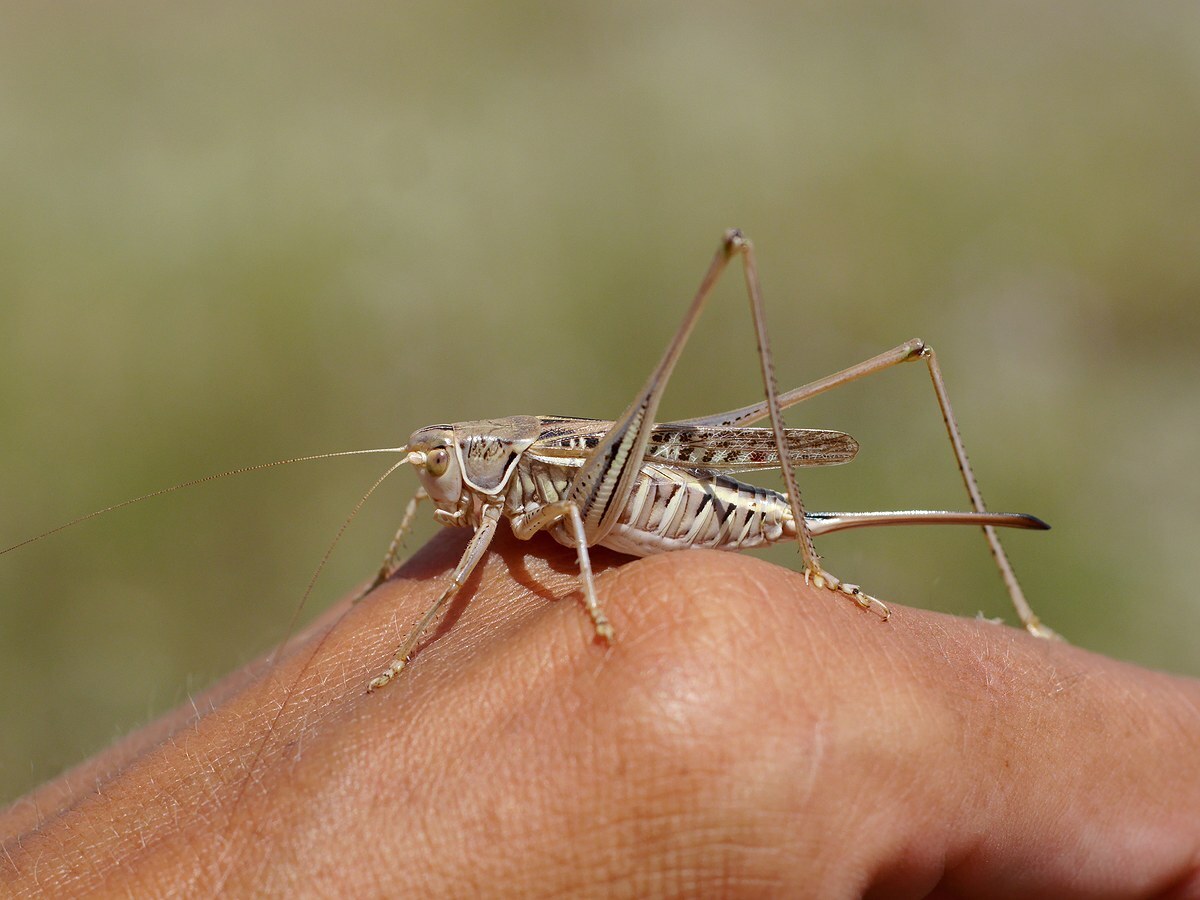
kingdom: Animalia
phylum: Arthropoda
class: Insecta
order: Orthoptera
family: Tettigoniidae
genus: Gampsocleis
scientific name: Gampsocleis glabra
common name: Heath bushcricket
